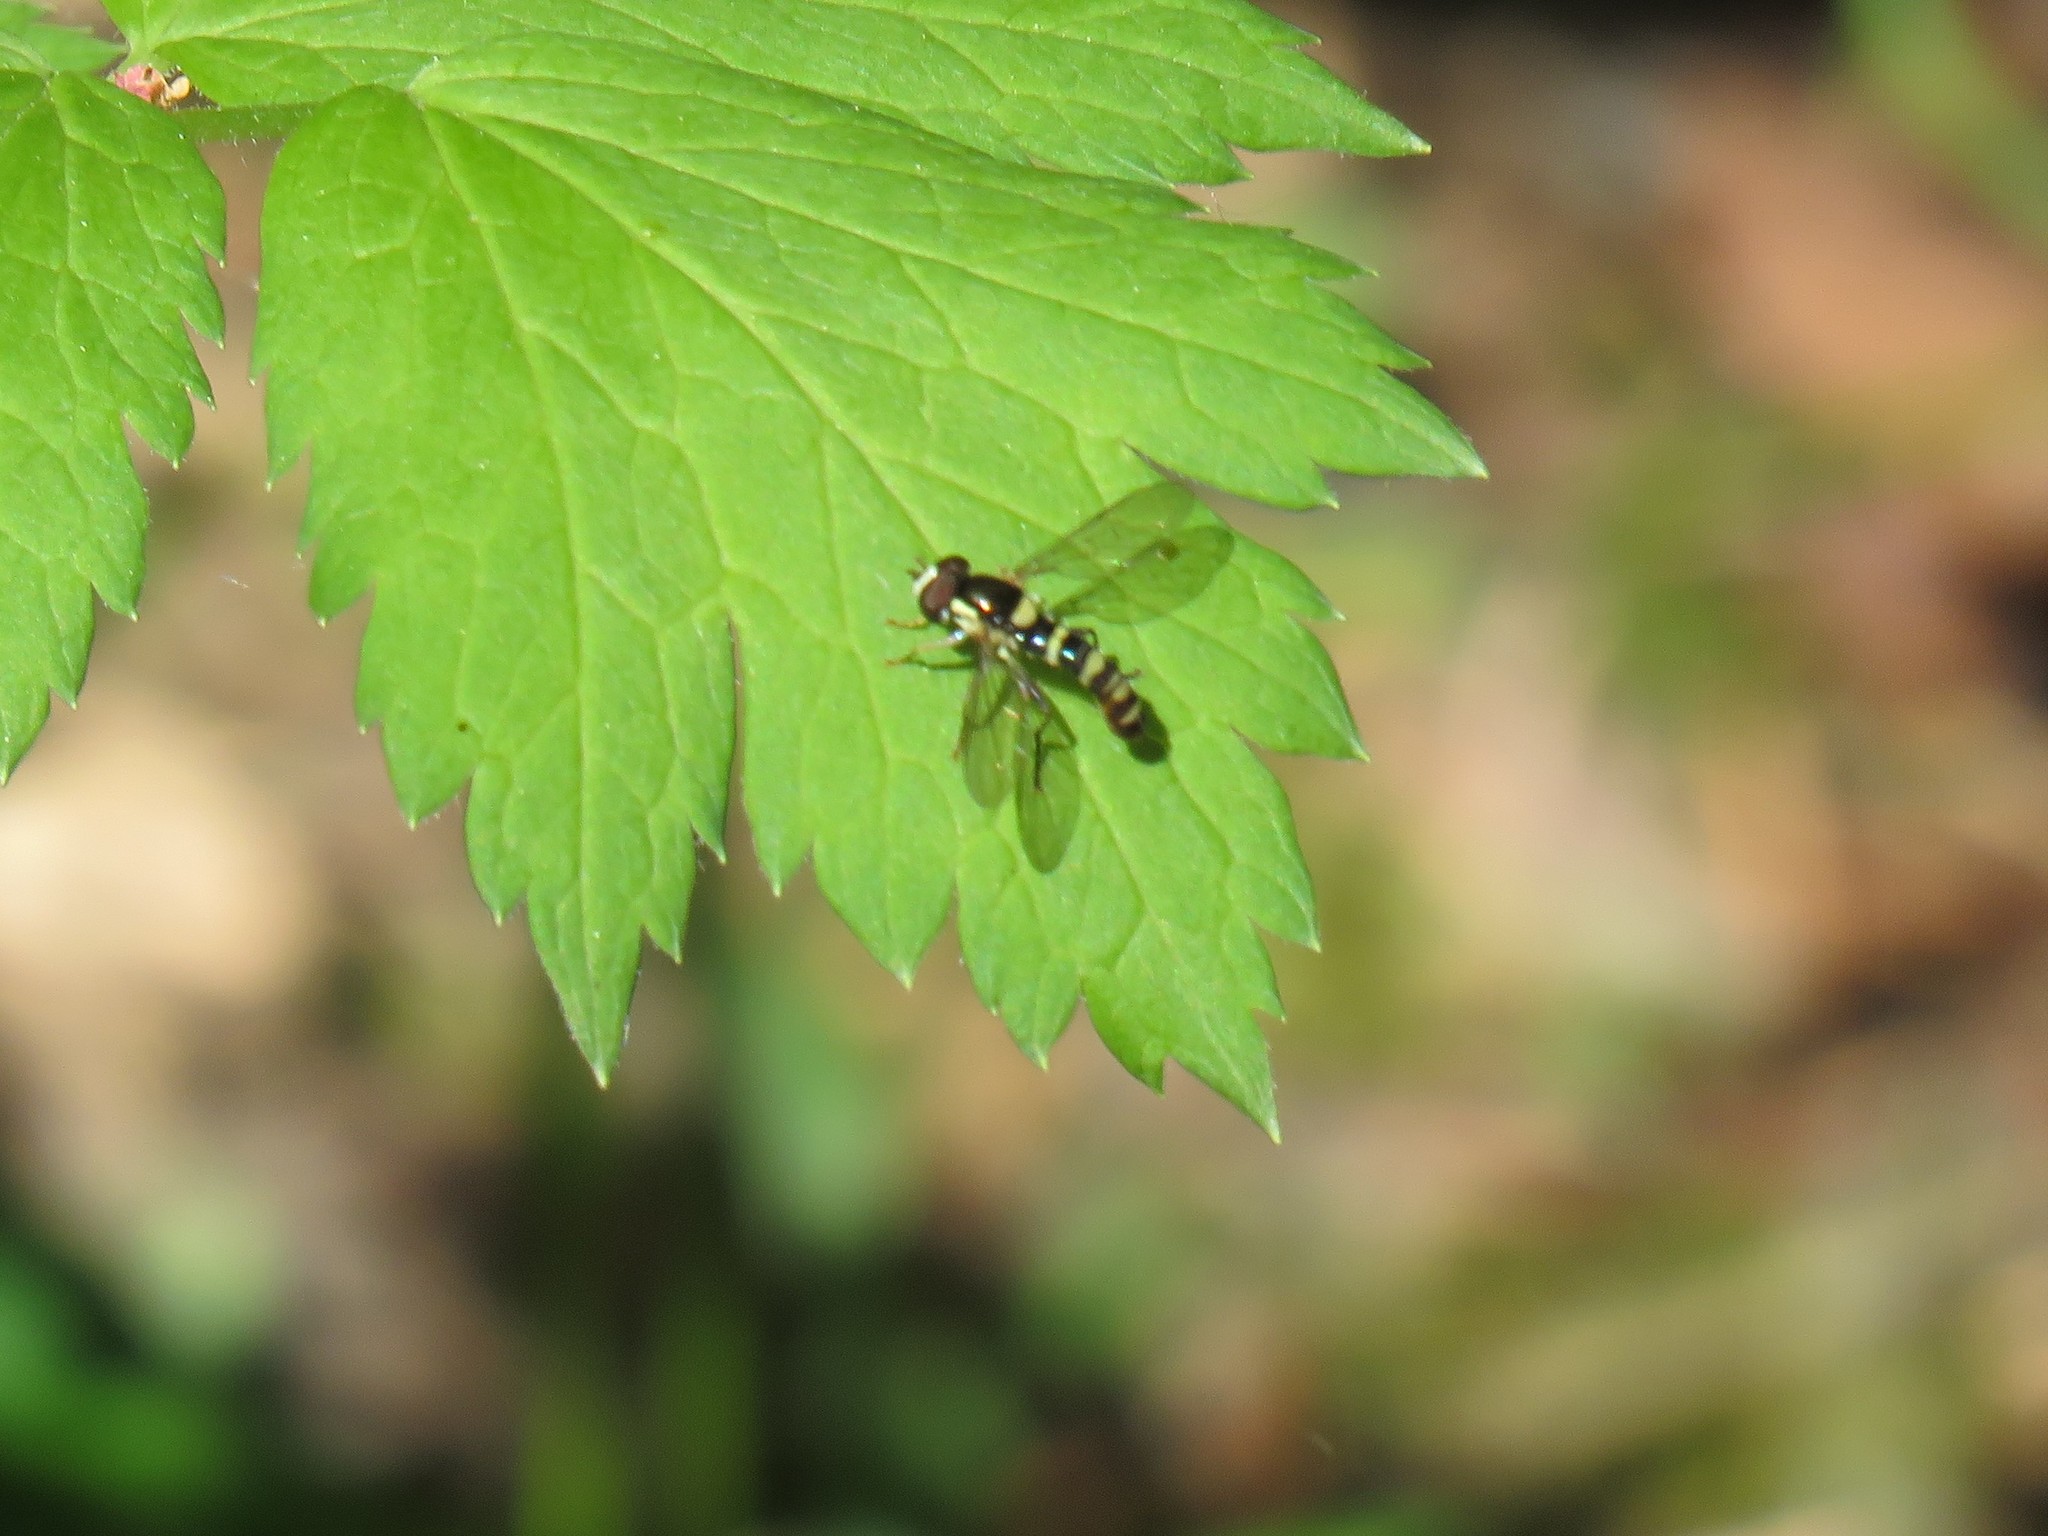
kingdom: Animalia
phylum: Arthropoda
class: Insecta
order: Diptera
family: Syrphidae
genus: Sphaerophoria
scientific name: Sphaerophoria novaeangliae
